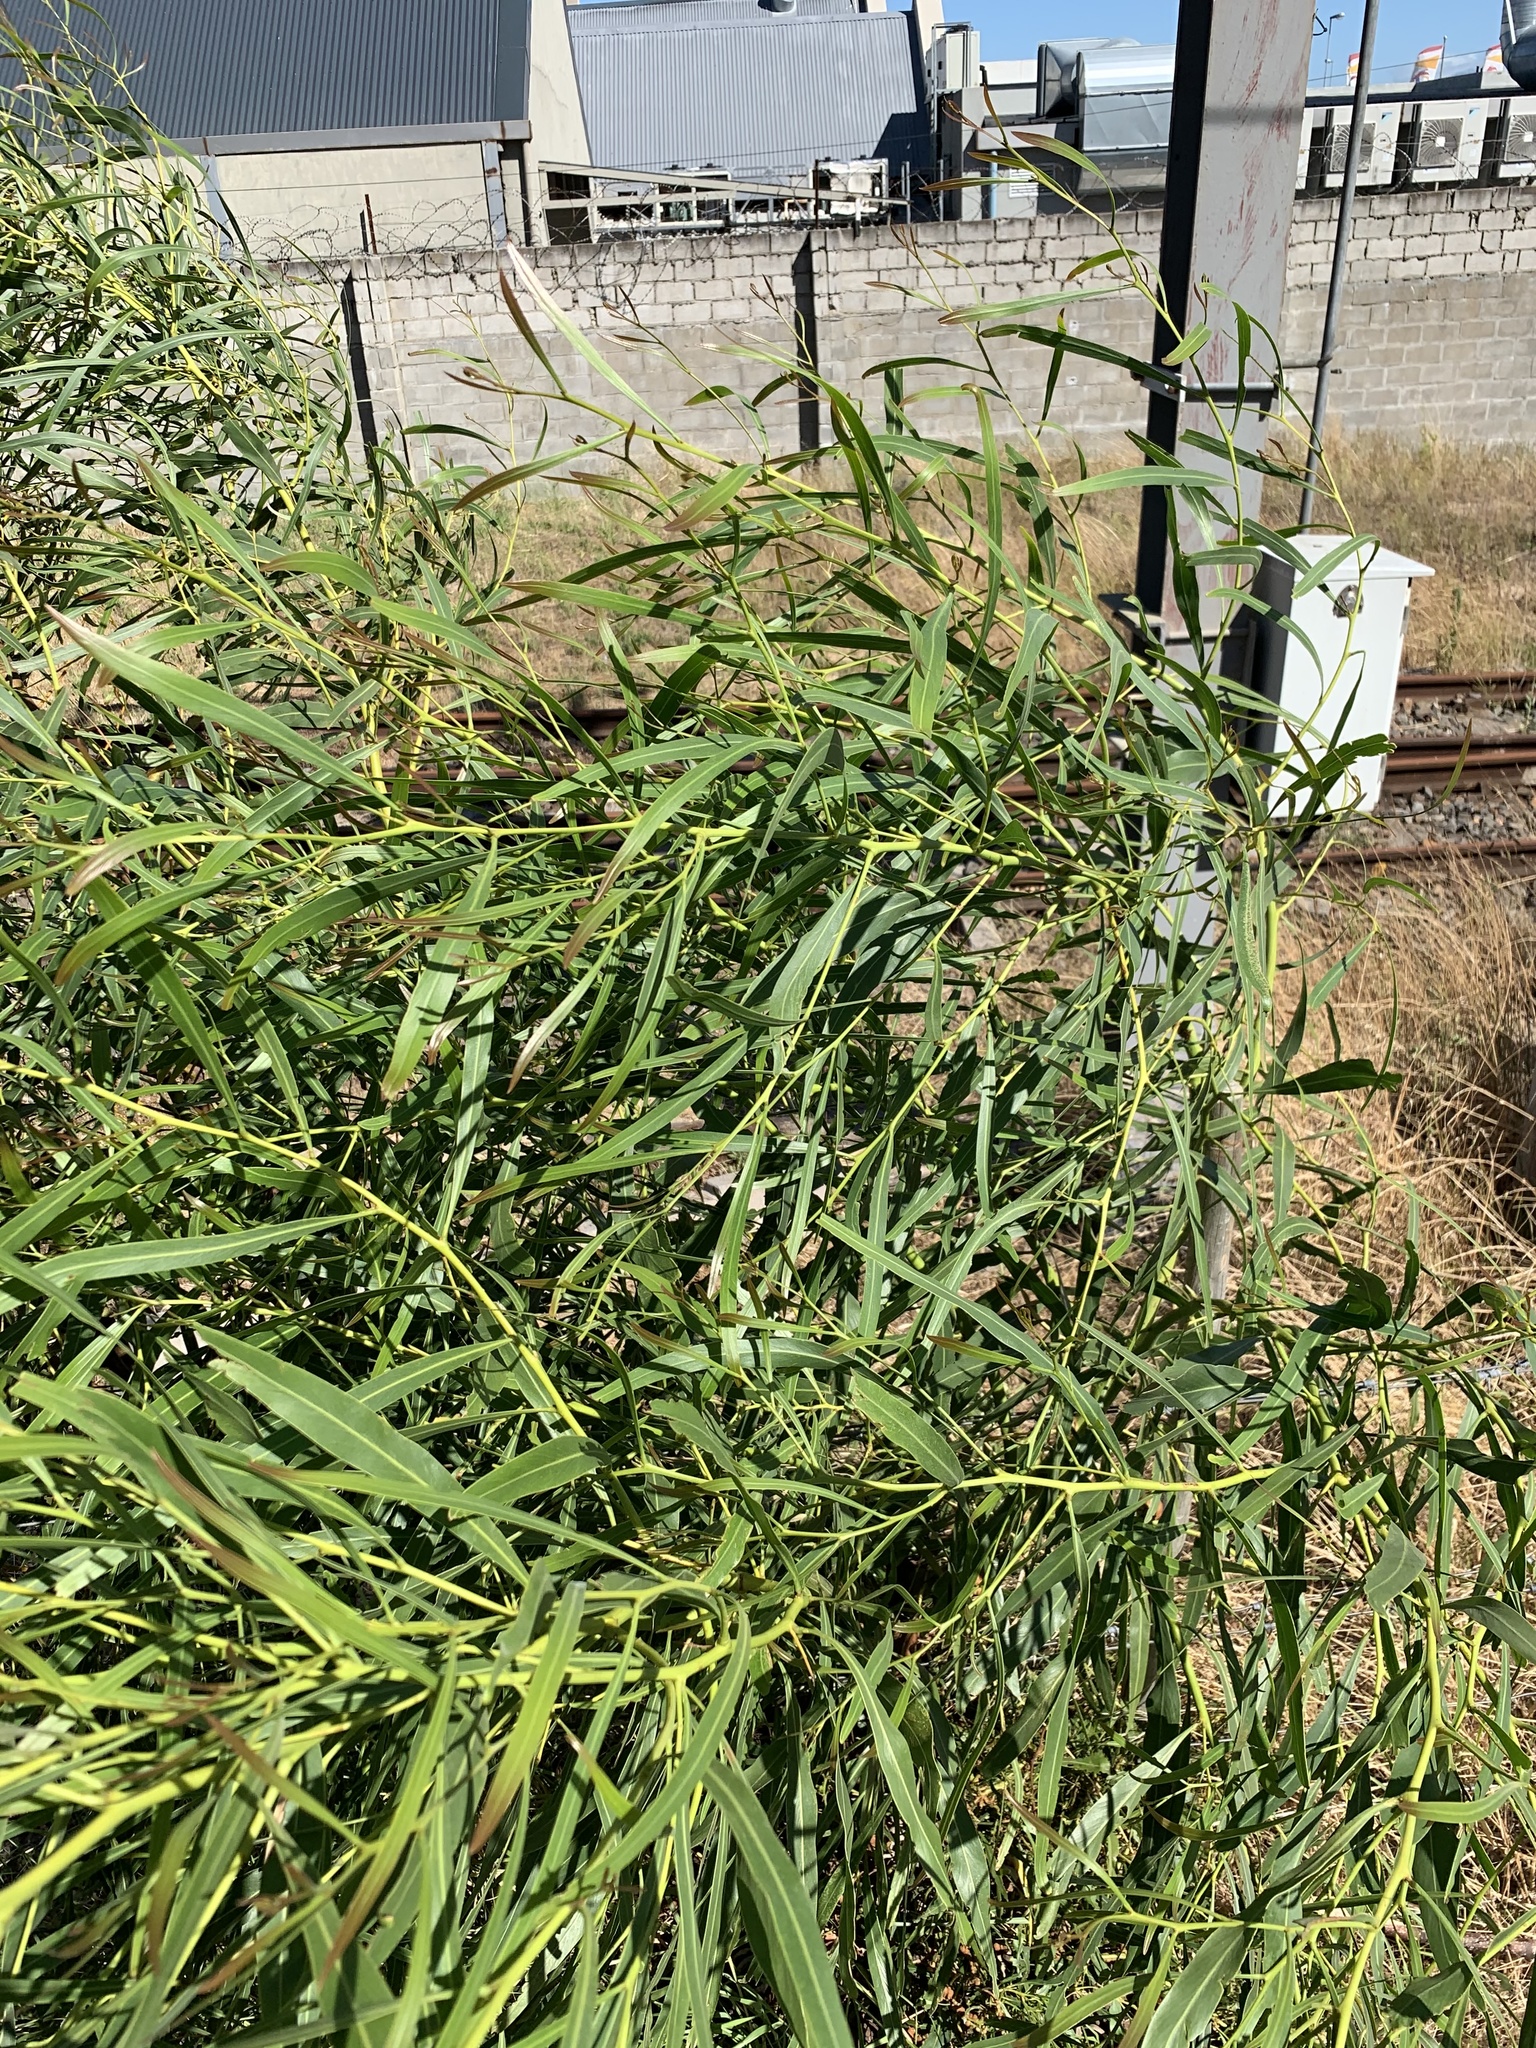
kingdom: Plantae
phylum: Tracheophyta
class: Magnoliopsida
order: Fabales
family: Fabaceae
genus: Acacia
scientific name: Acacia saligna
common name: Orange wattle
